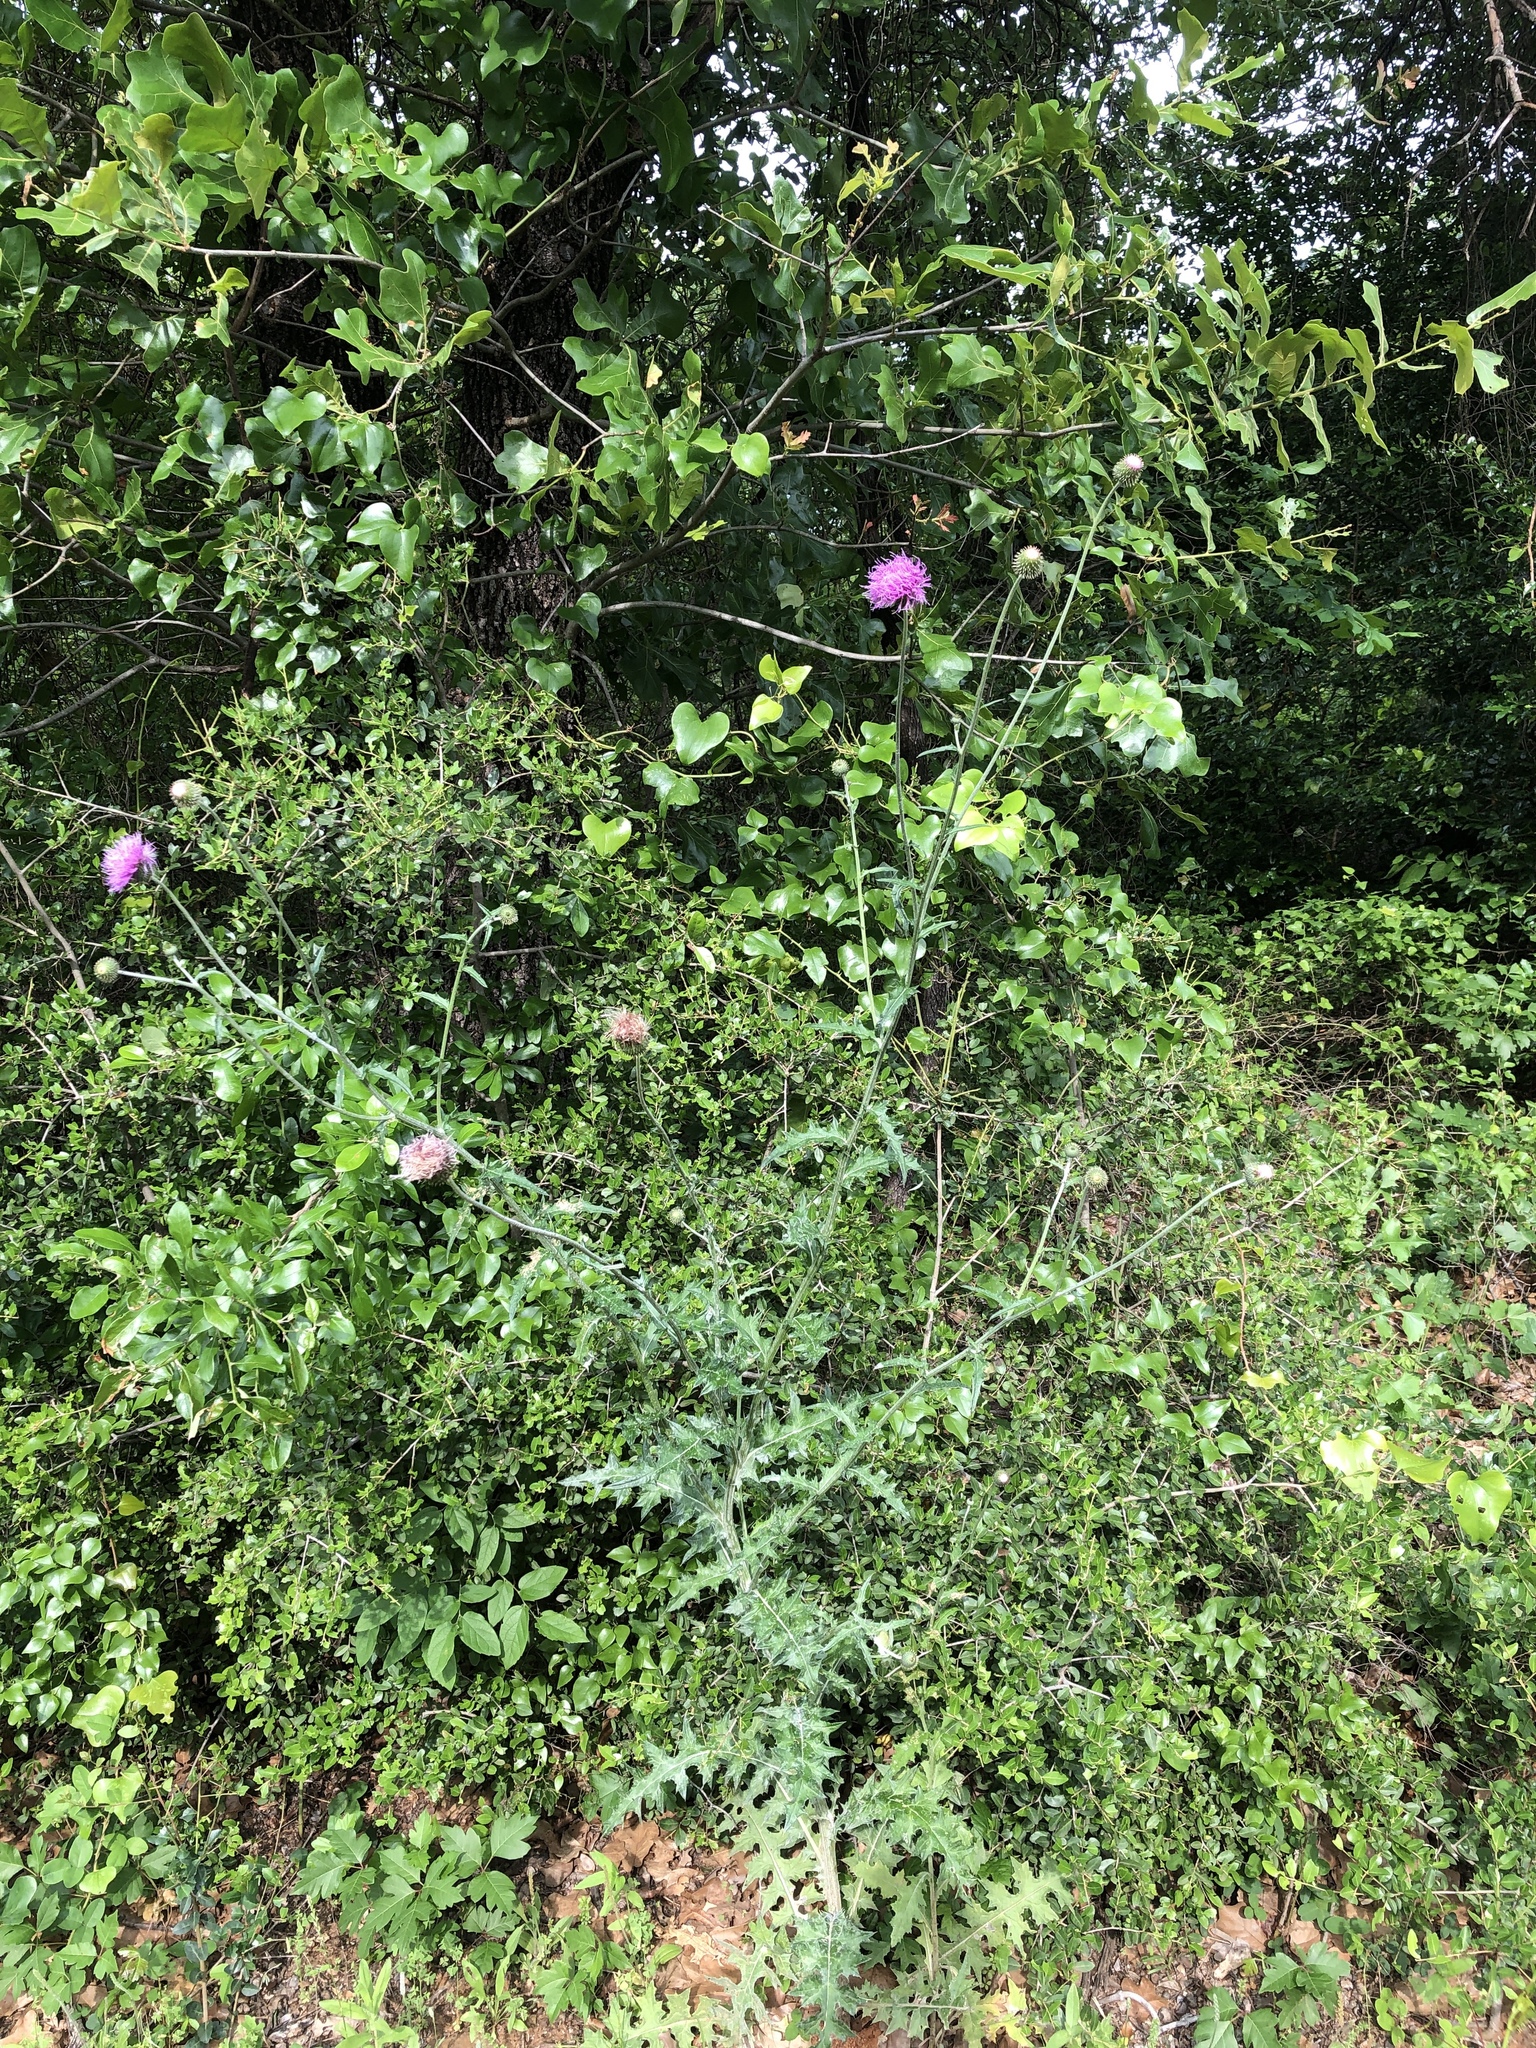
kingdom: Plantae
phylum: Tracheophyta
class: Magnoliopsida
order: Asterales
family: Asteraceae
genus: Cirsium
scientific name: Cirsium texanum
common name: Texas purple thistle
